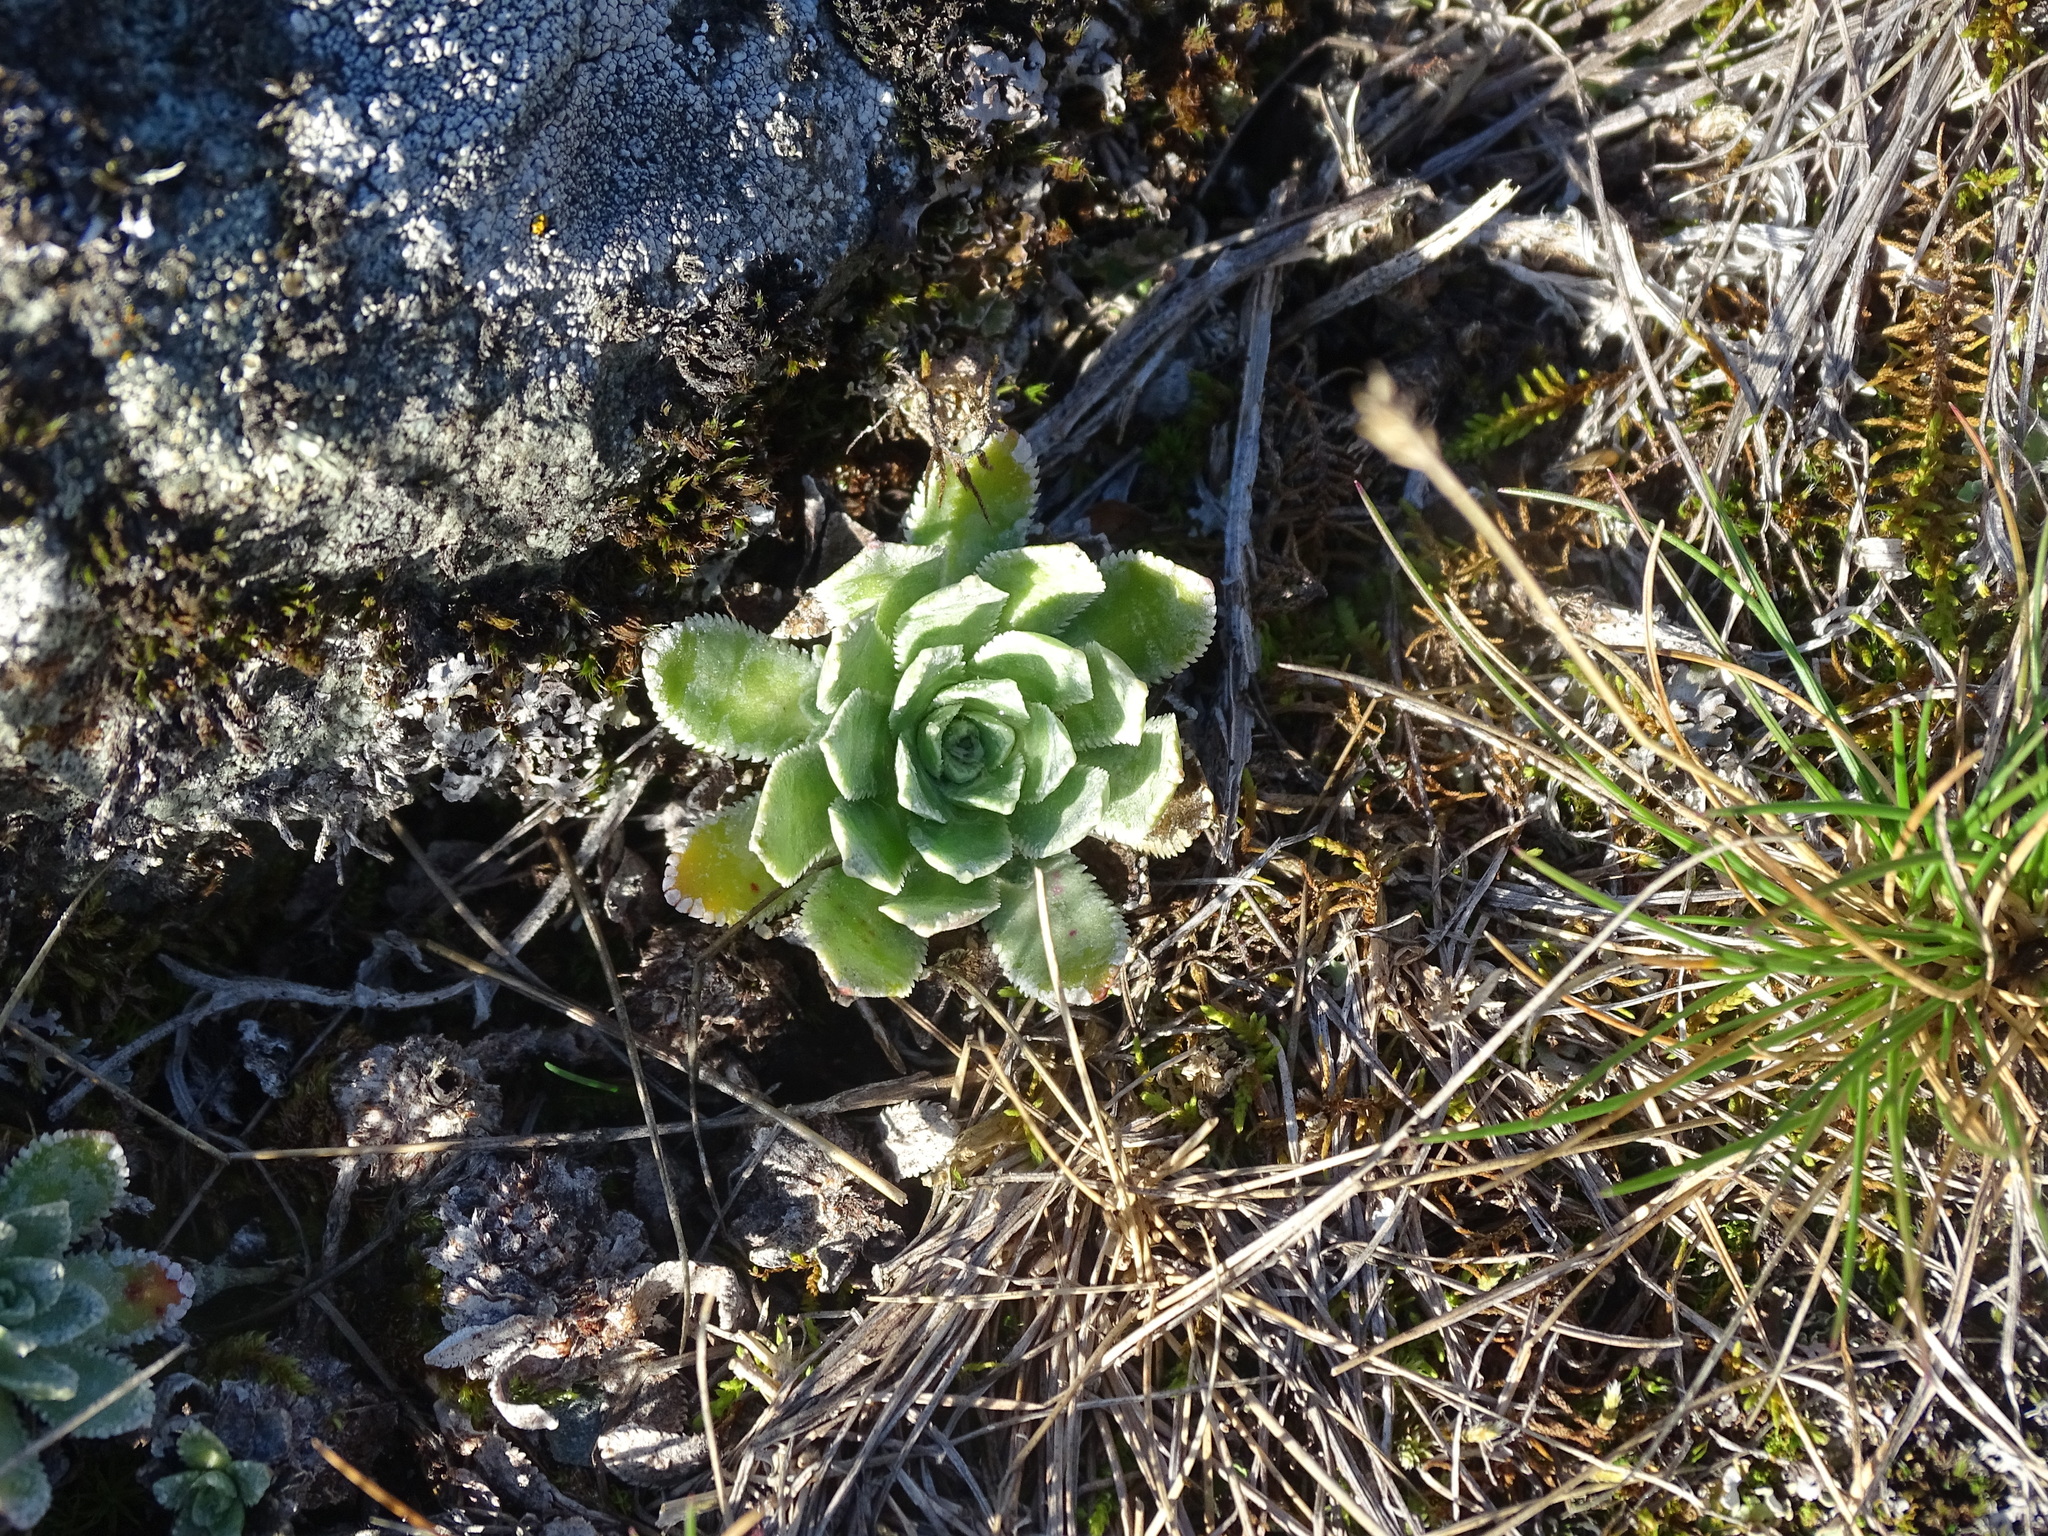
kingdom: Plantae
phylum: Tracheophyta
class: Magnoliopsida
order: Saxifragales
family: Saxifragaceae
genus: Saxifraga
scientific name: Saxifraga paniculata
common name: Livelong saxifrage
